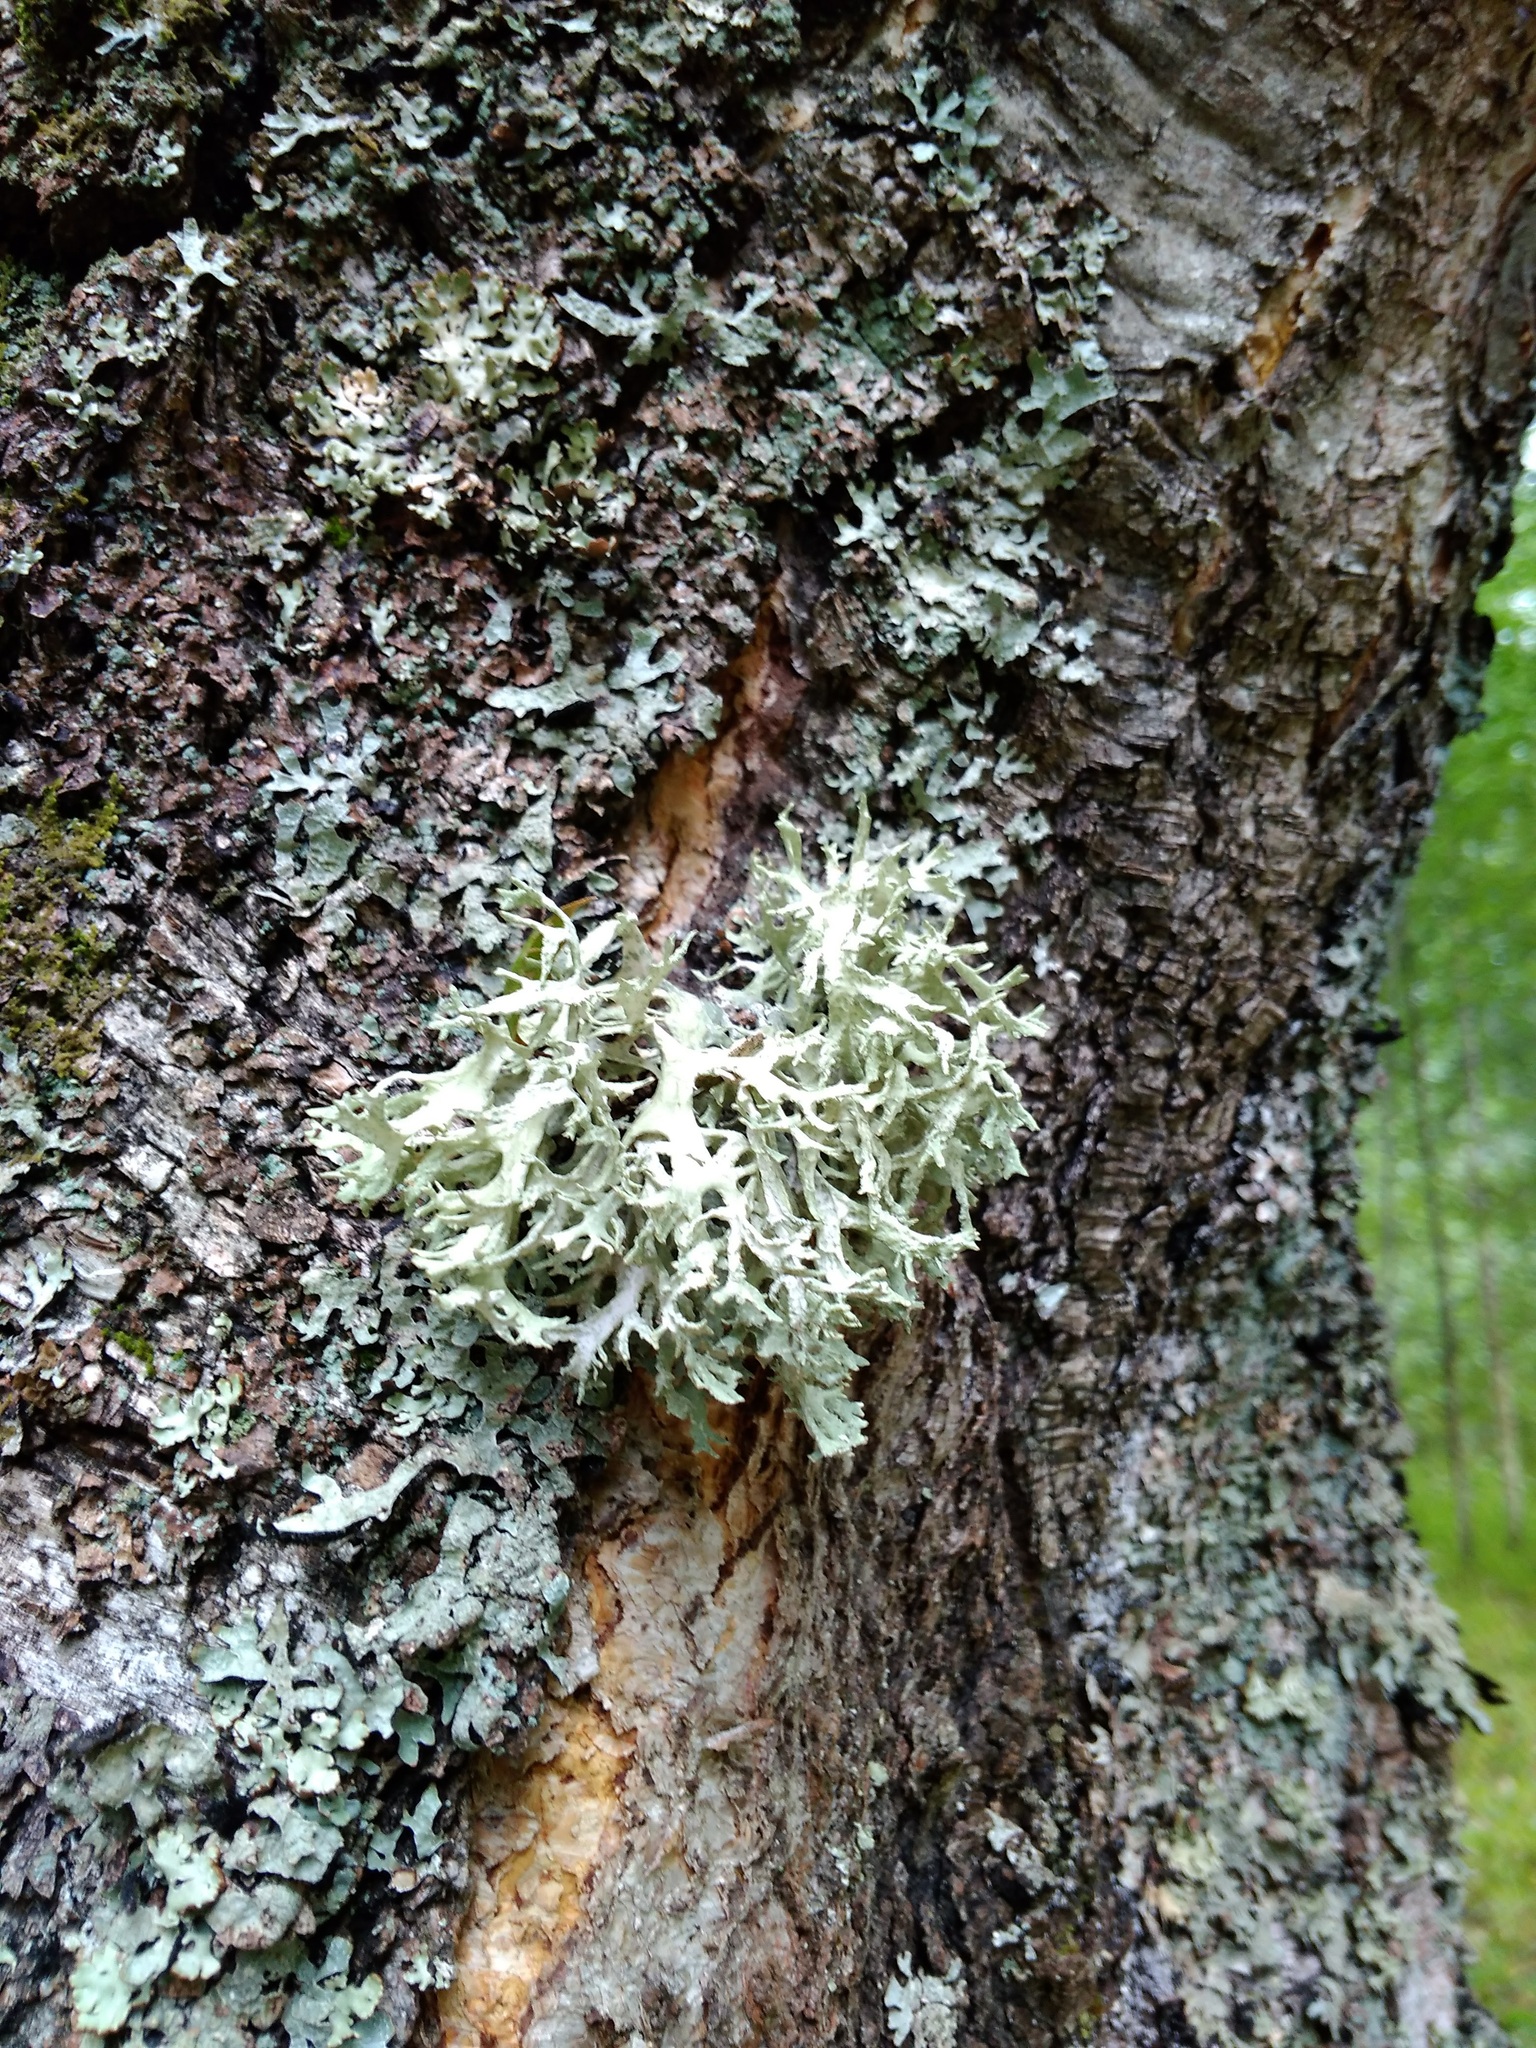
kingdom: Fungi
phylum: Ascomycota
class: Lecanoromycetes
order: Lecanorales
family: Parmeliaceae
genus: Evernia
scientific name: Evernia prunastri
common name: Oak moss
